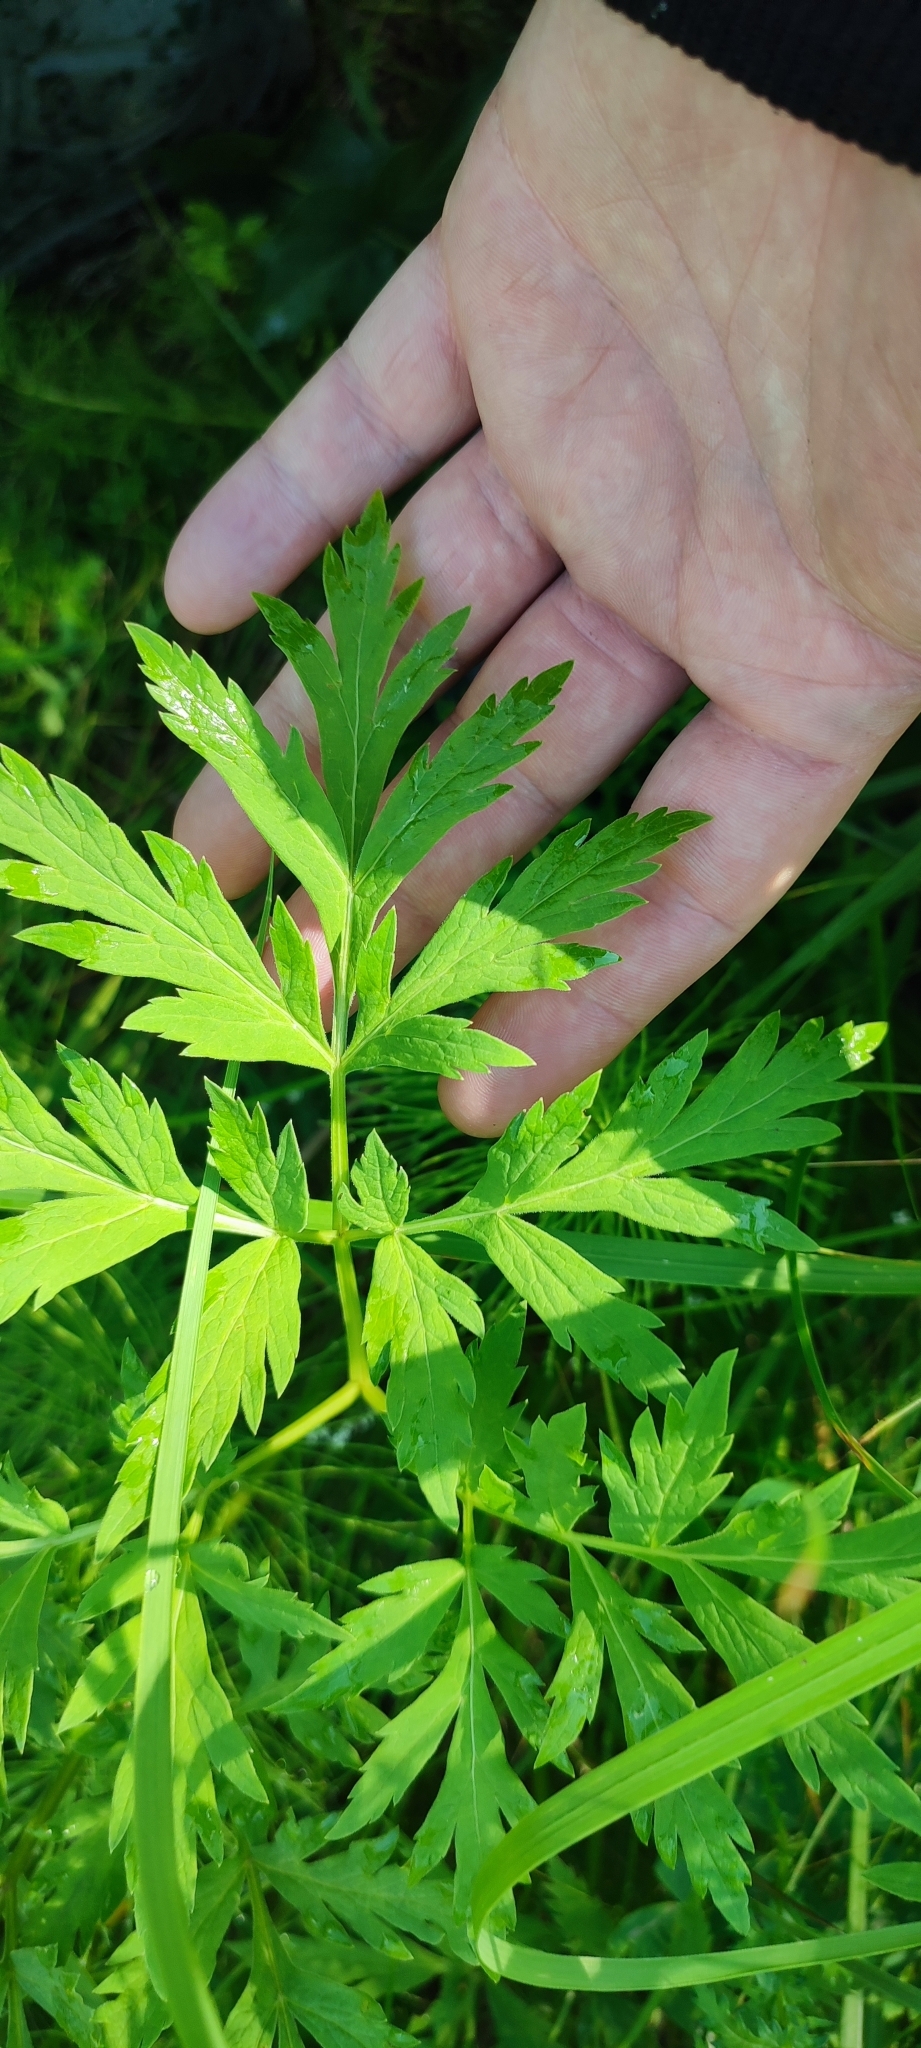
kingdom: Plantae
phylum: Tracheophyta
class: Magnoliopsida
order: Apiales
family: Apiaceae
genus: Pleurospermum
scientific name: Pleurospermum uralense
